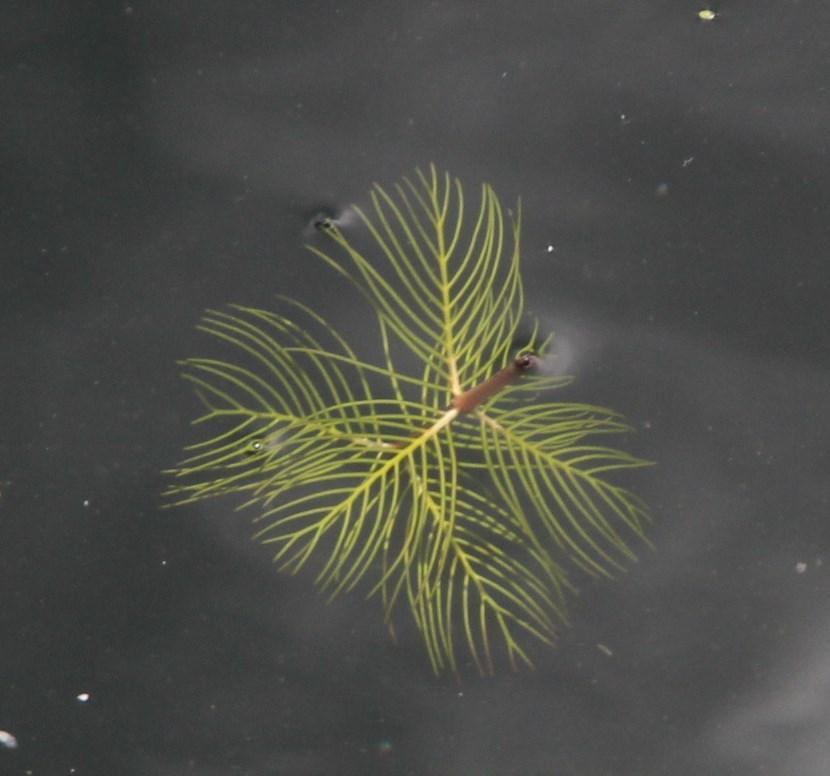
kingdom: Plantae
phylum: Tracheophyta
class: Magnoliopsida
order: Saxifragales
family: Haloragaceae
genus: Myriophyllum
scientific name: Myriophyllum quitense
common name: Andean water milfoil
